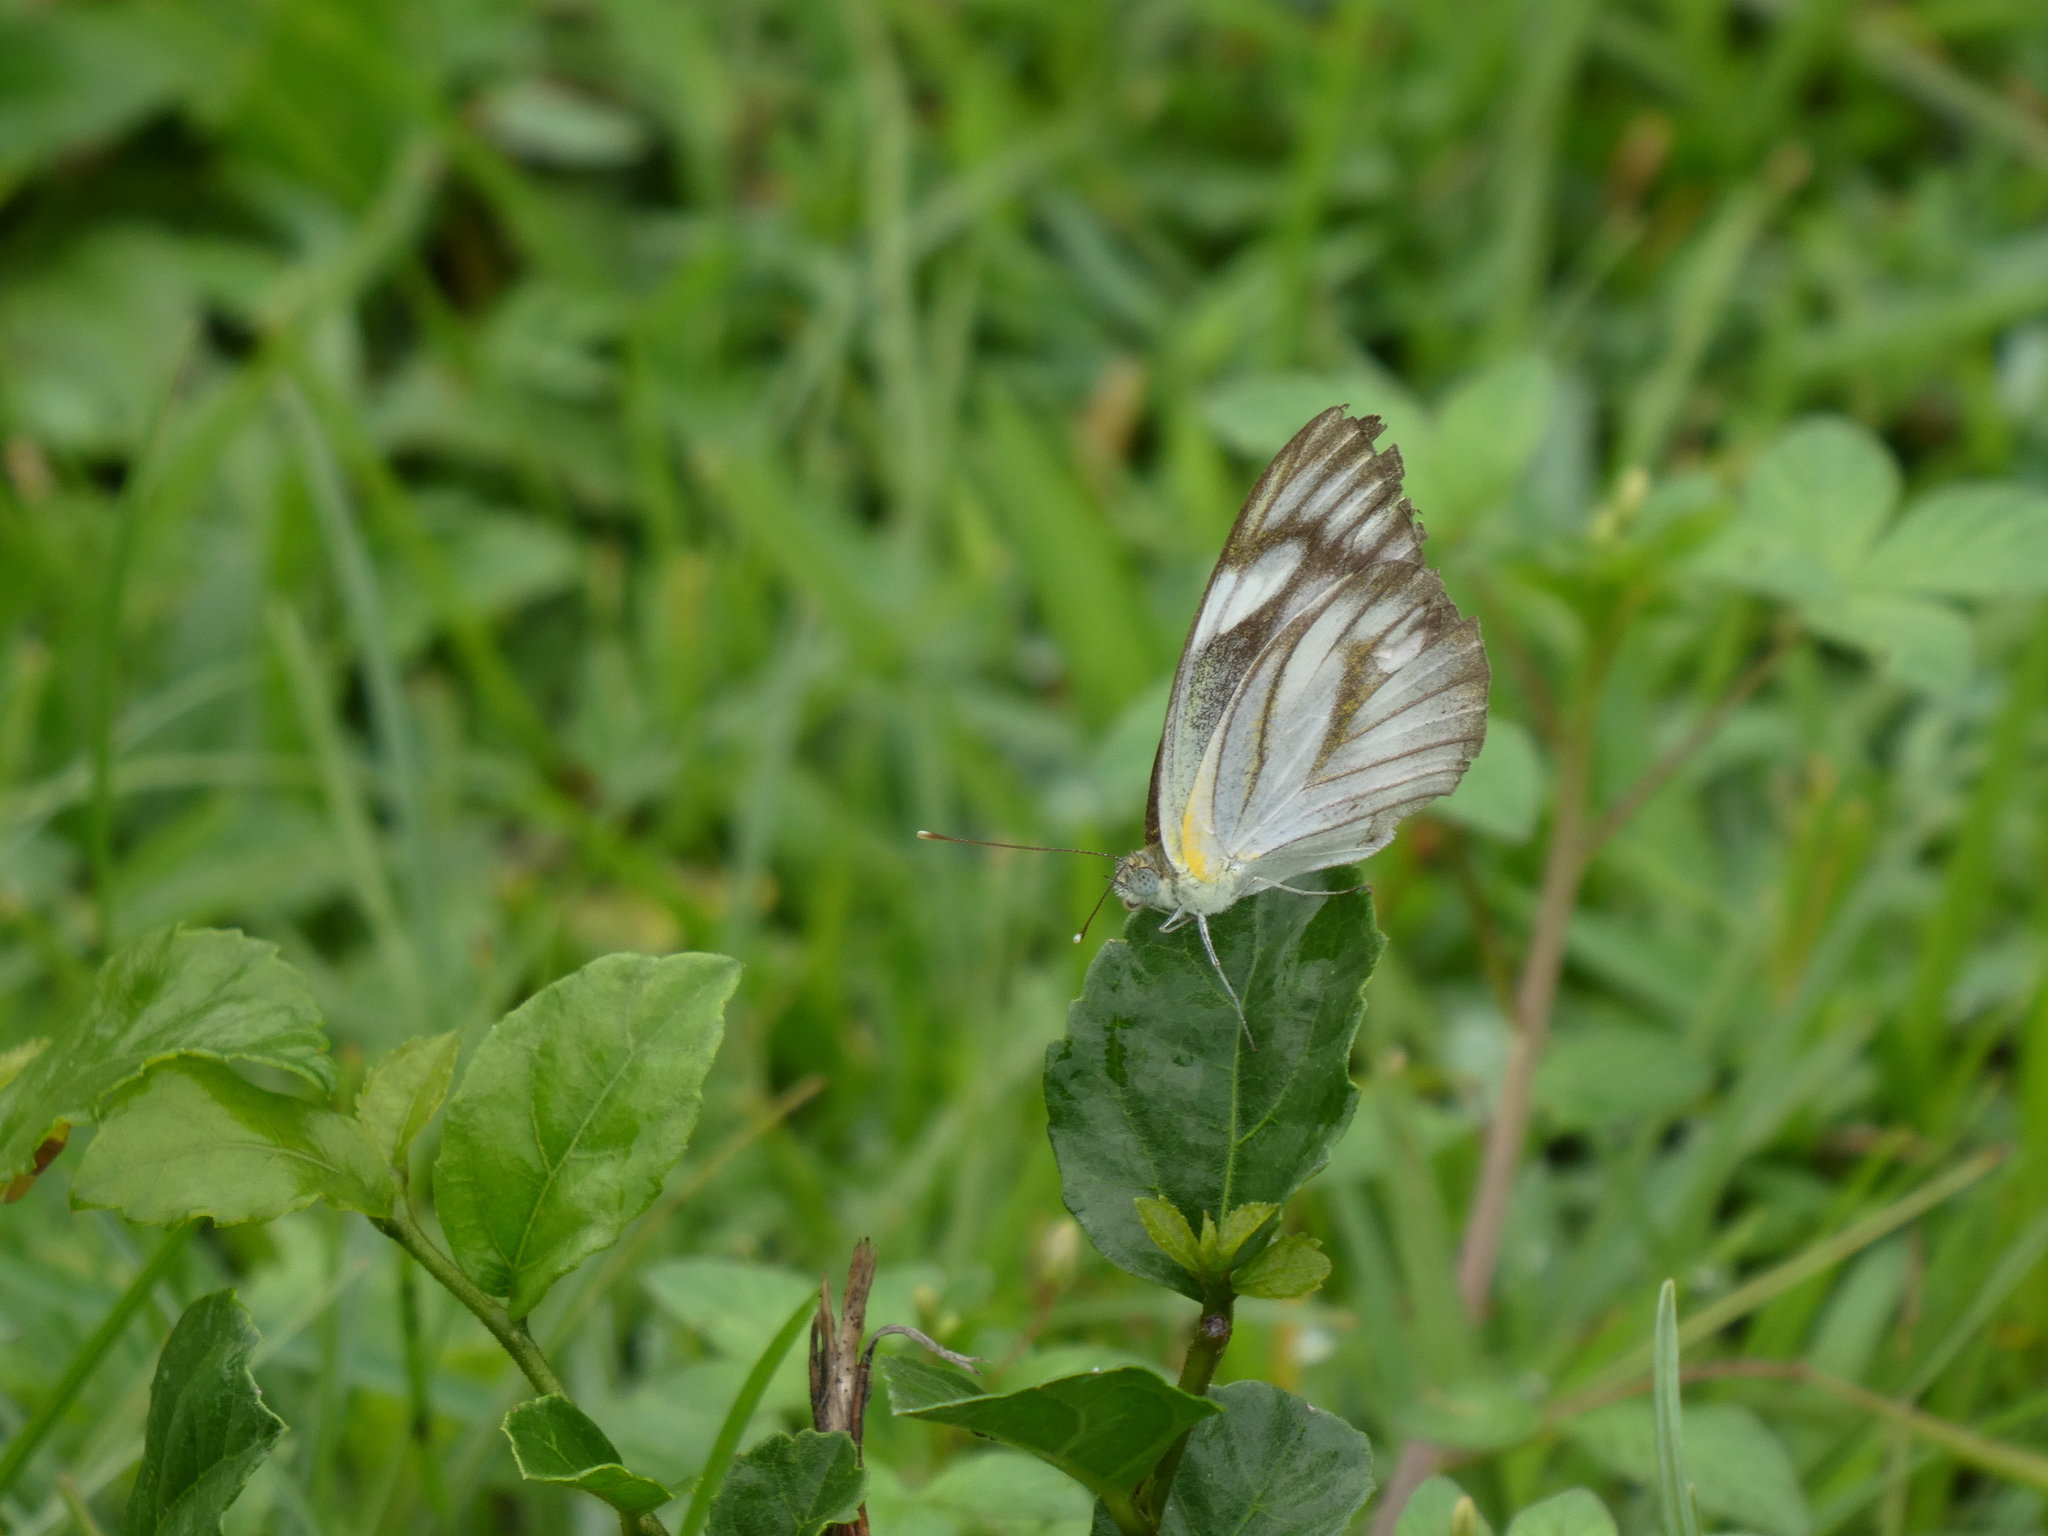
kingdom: Animalia
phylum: Arthropoda
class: Insecta
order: Lepidoptera
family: Pieridae
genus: Appias
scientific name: Appias libythea
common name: Striped albatross
